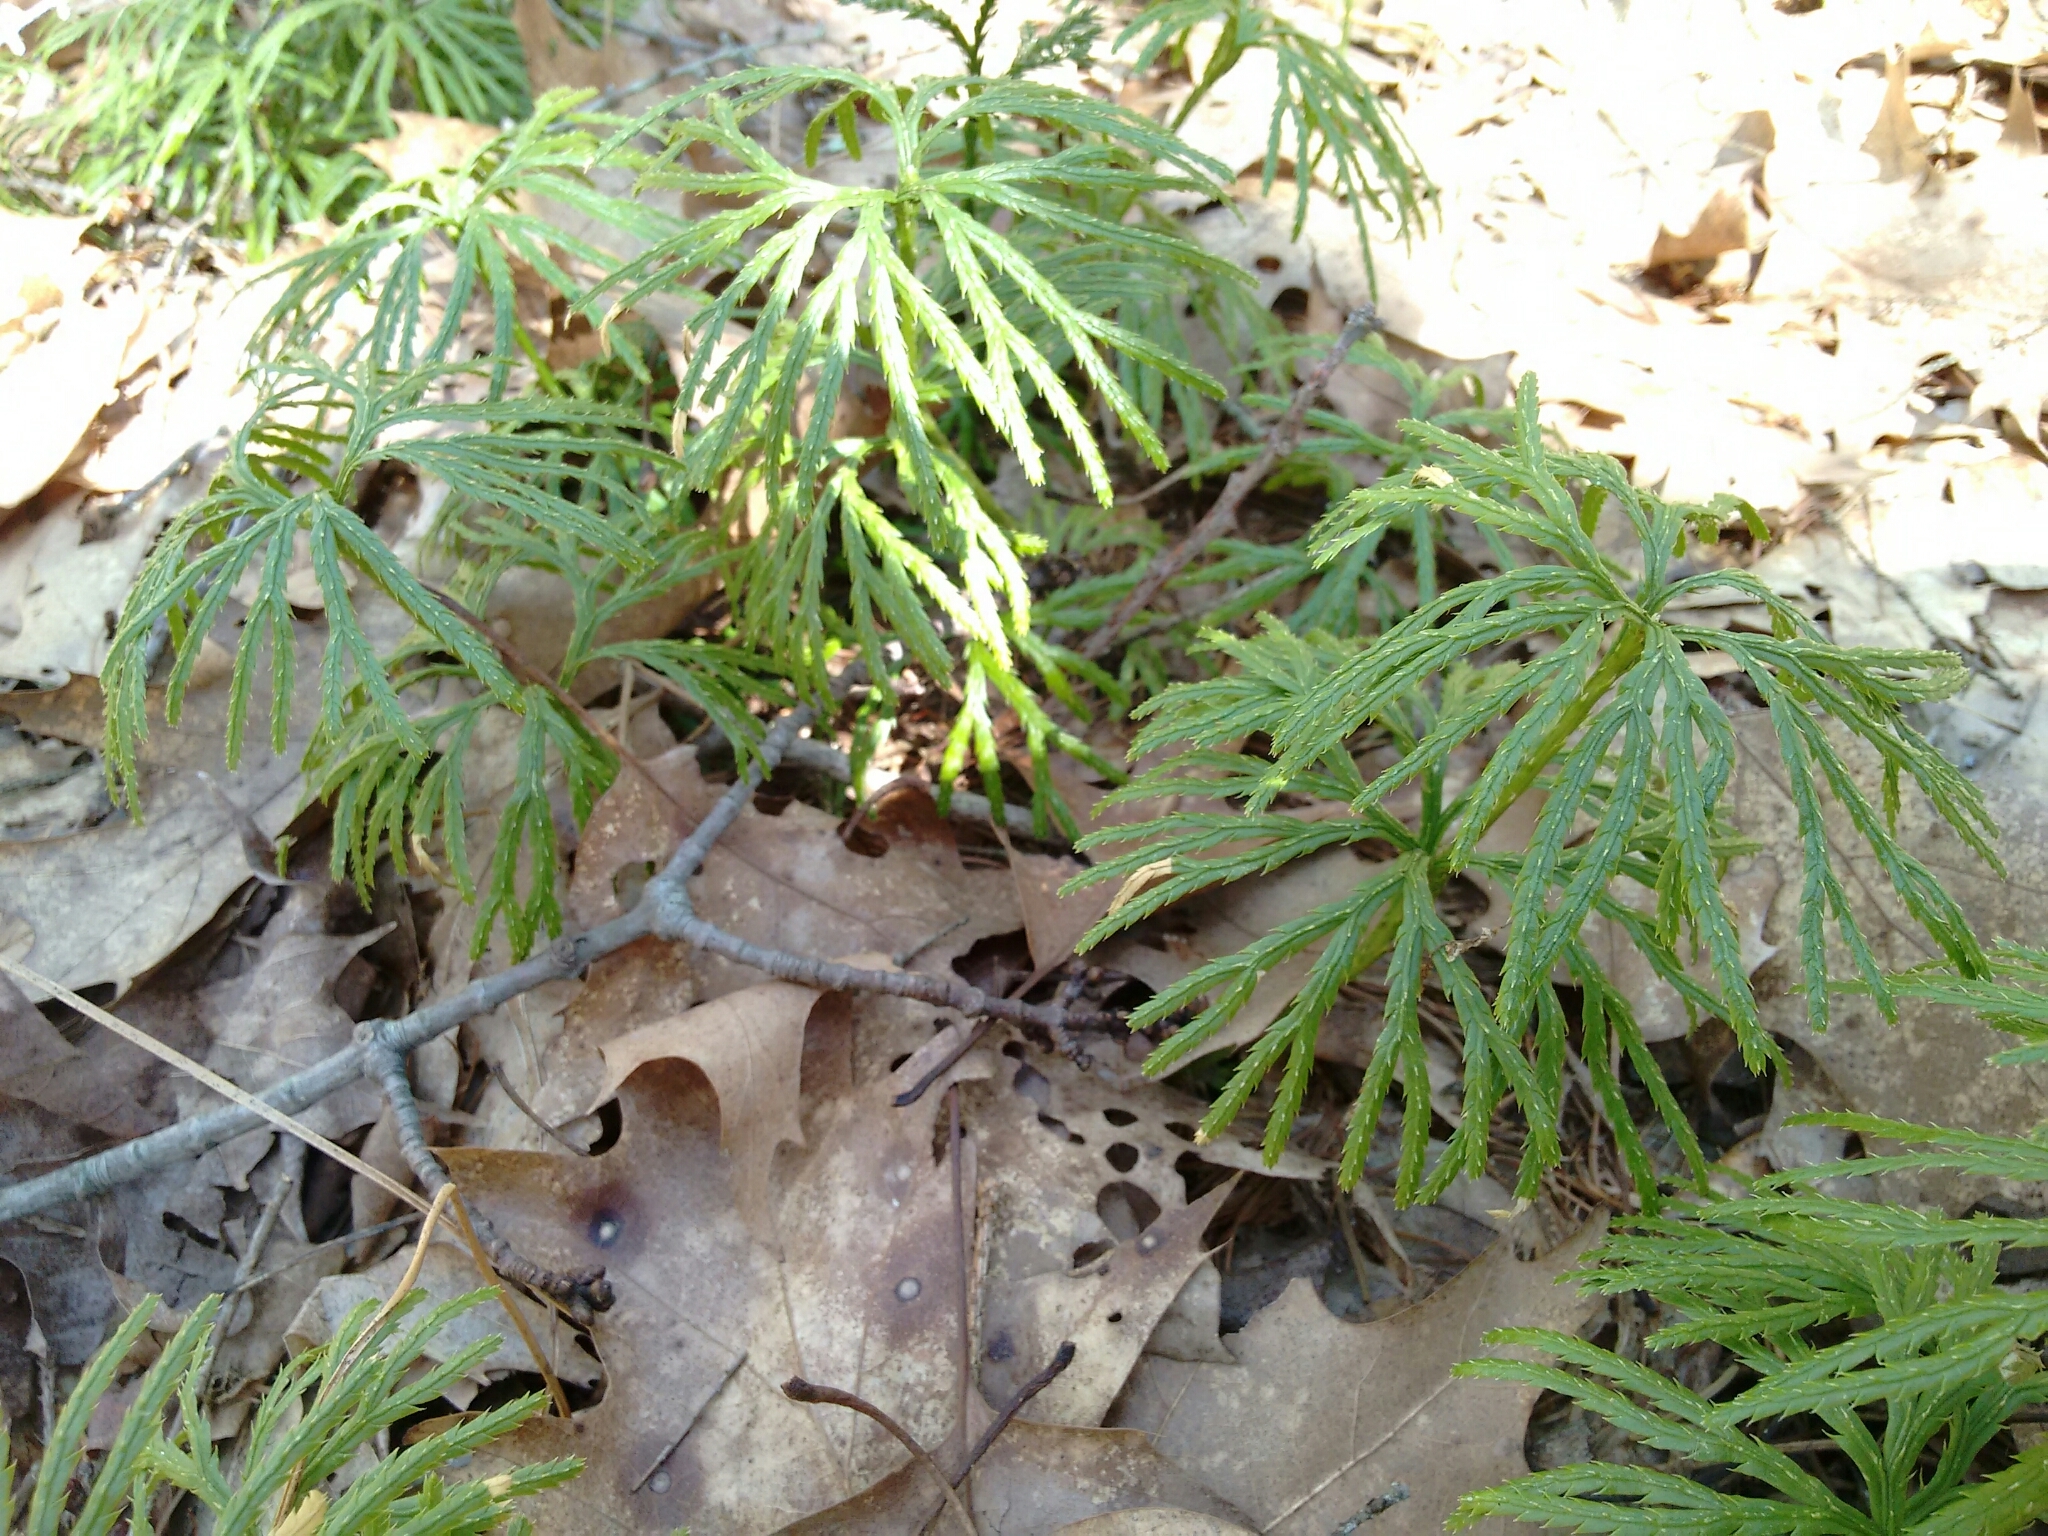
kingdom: Plantae
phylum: Tracheophyta
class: Lycopodiopsida
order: Lycopodiales
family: Lycopodiaceae
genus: Diphasiastrum
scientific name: Diphasiastrum digitatum
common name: Southern running-pine
